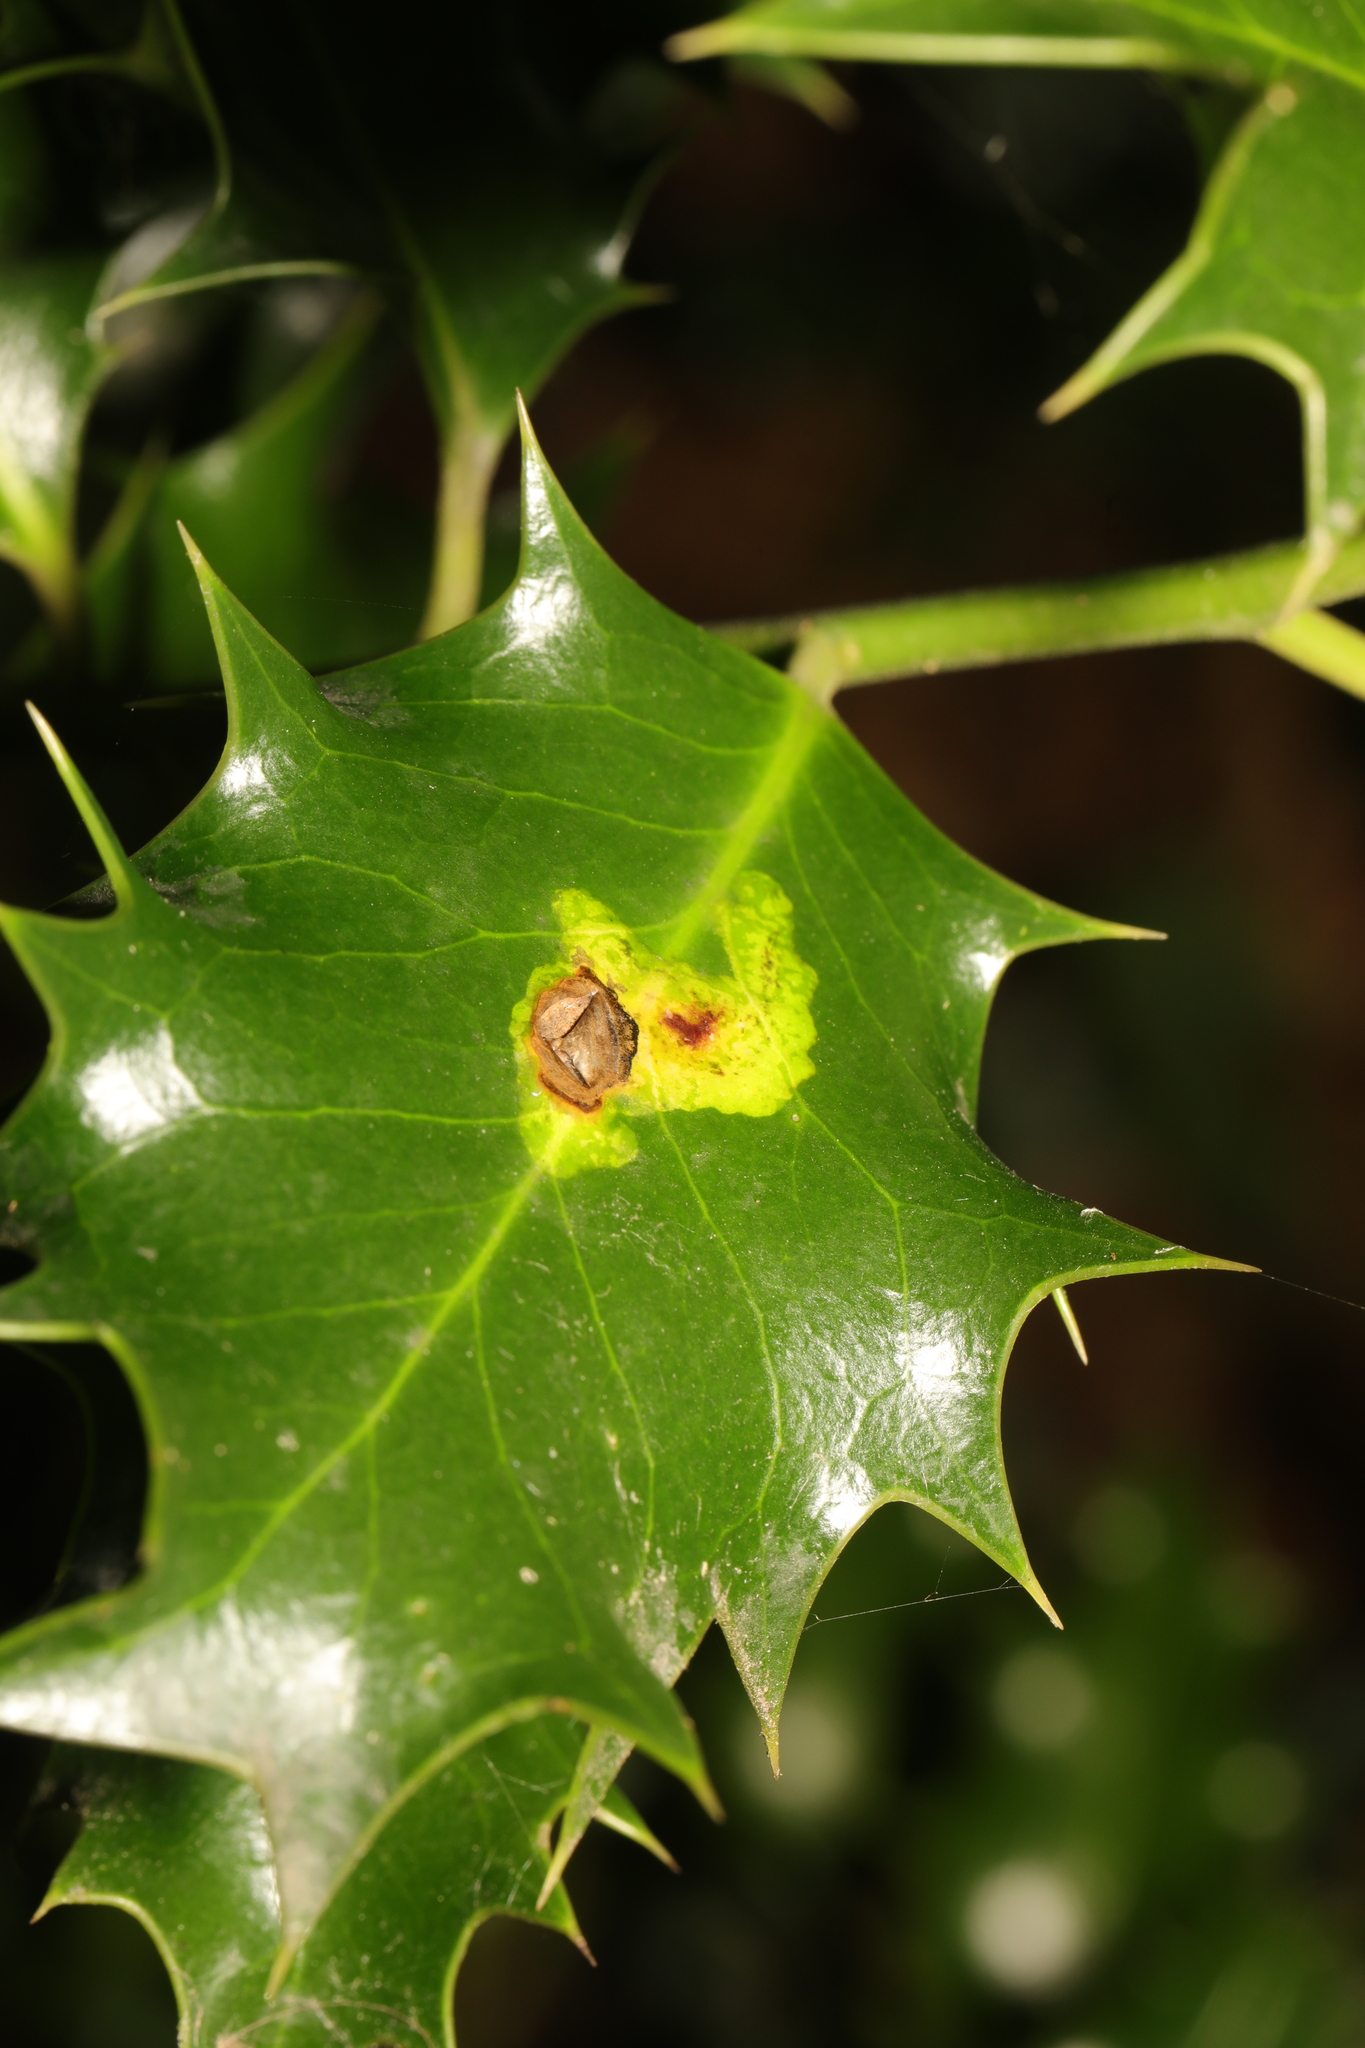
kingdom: Animalia
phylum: Arthropoda
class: Insecta
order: Diptera
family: Agromyzidae
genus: Phytomyza
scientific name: Phytomyza ilicis
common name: Holly leafminer
